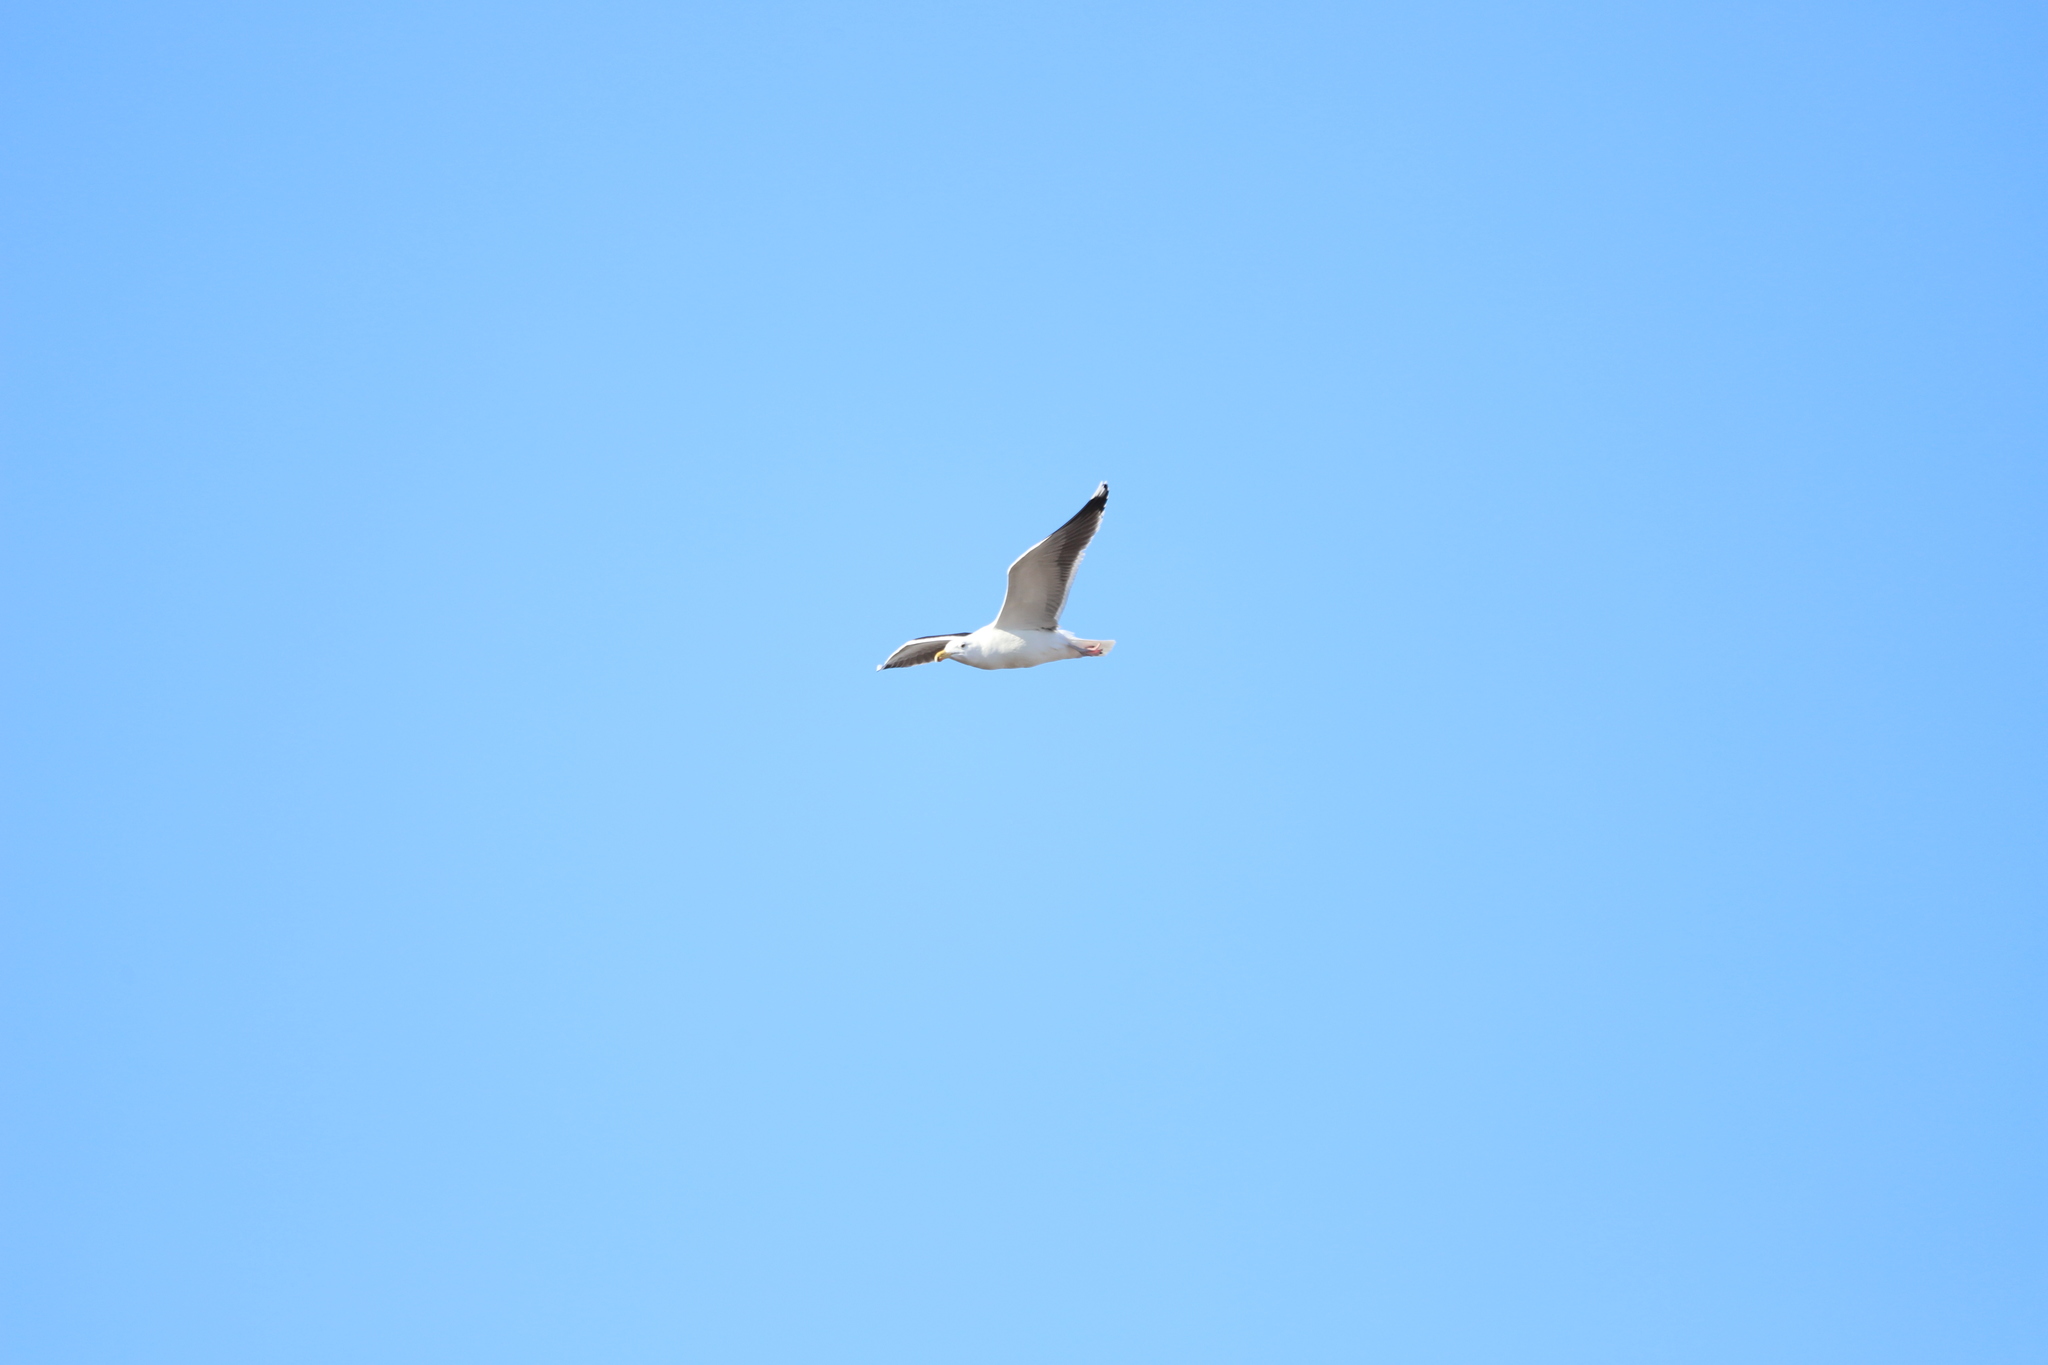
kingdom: Animalia
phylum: Chordata
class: Aves
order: Charadriiformes
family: Laridae
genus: Larus
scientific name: Larus delawarensis
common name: Ring-billed gull
